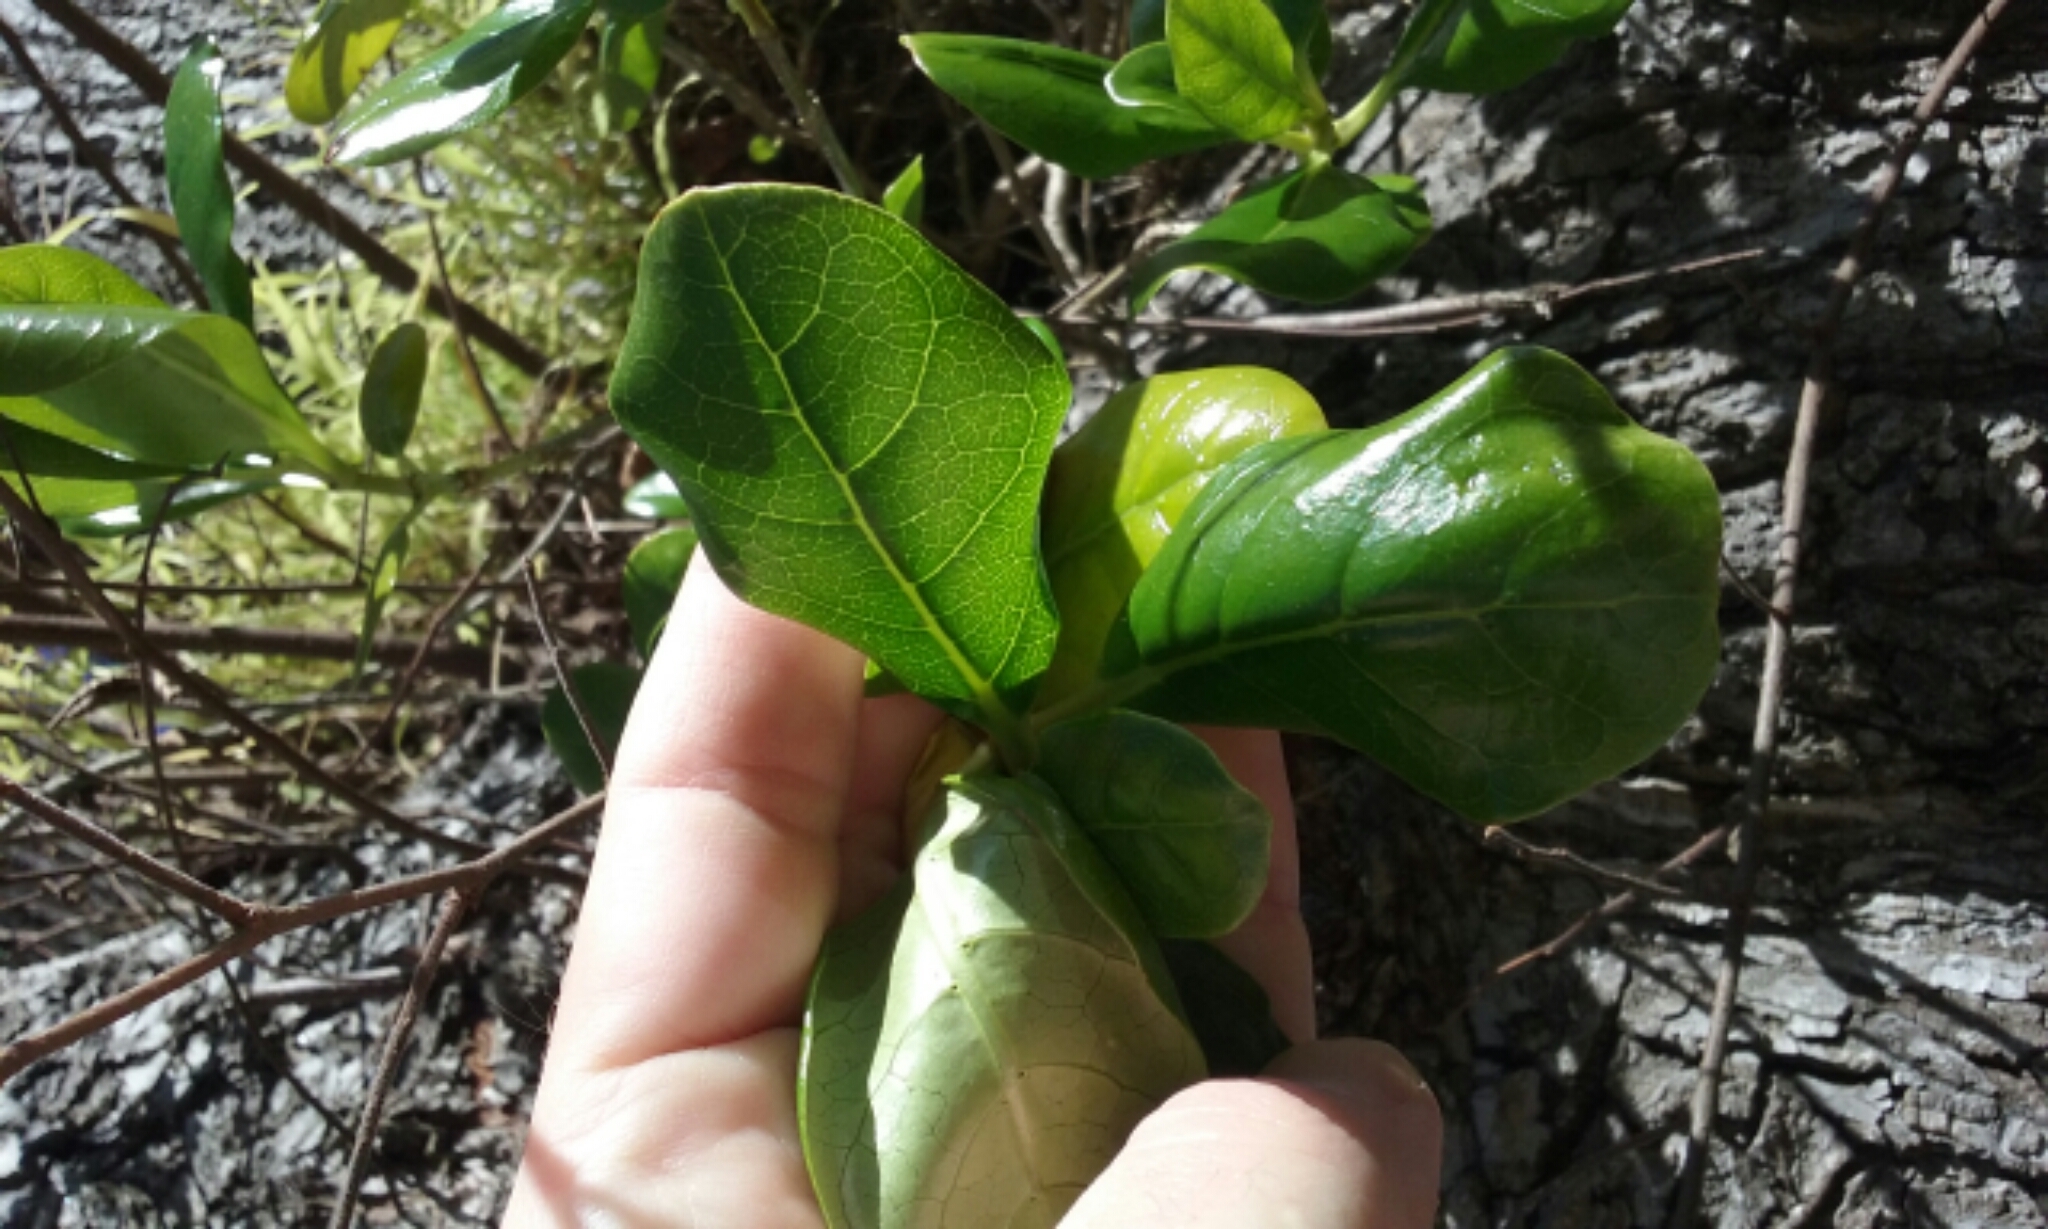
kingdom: Plantae
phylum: Tracheophyta
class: Magnoliopsida
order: Gentianales
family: Rubiaceae
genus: Coprosma
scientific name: Coprosma repens
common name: Tree bedstraw
